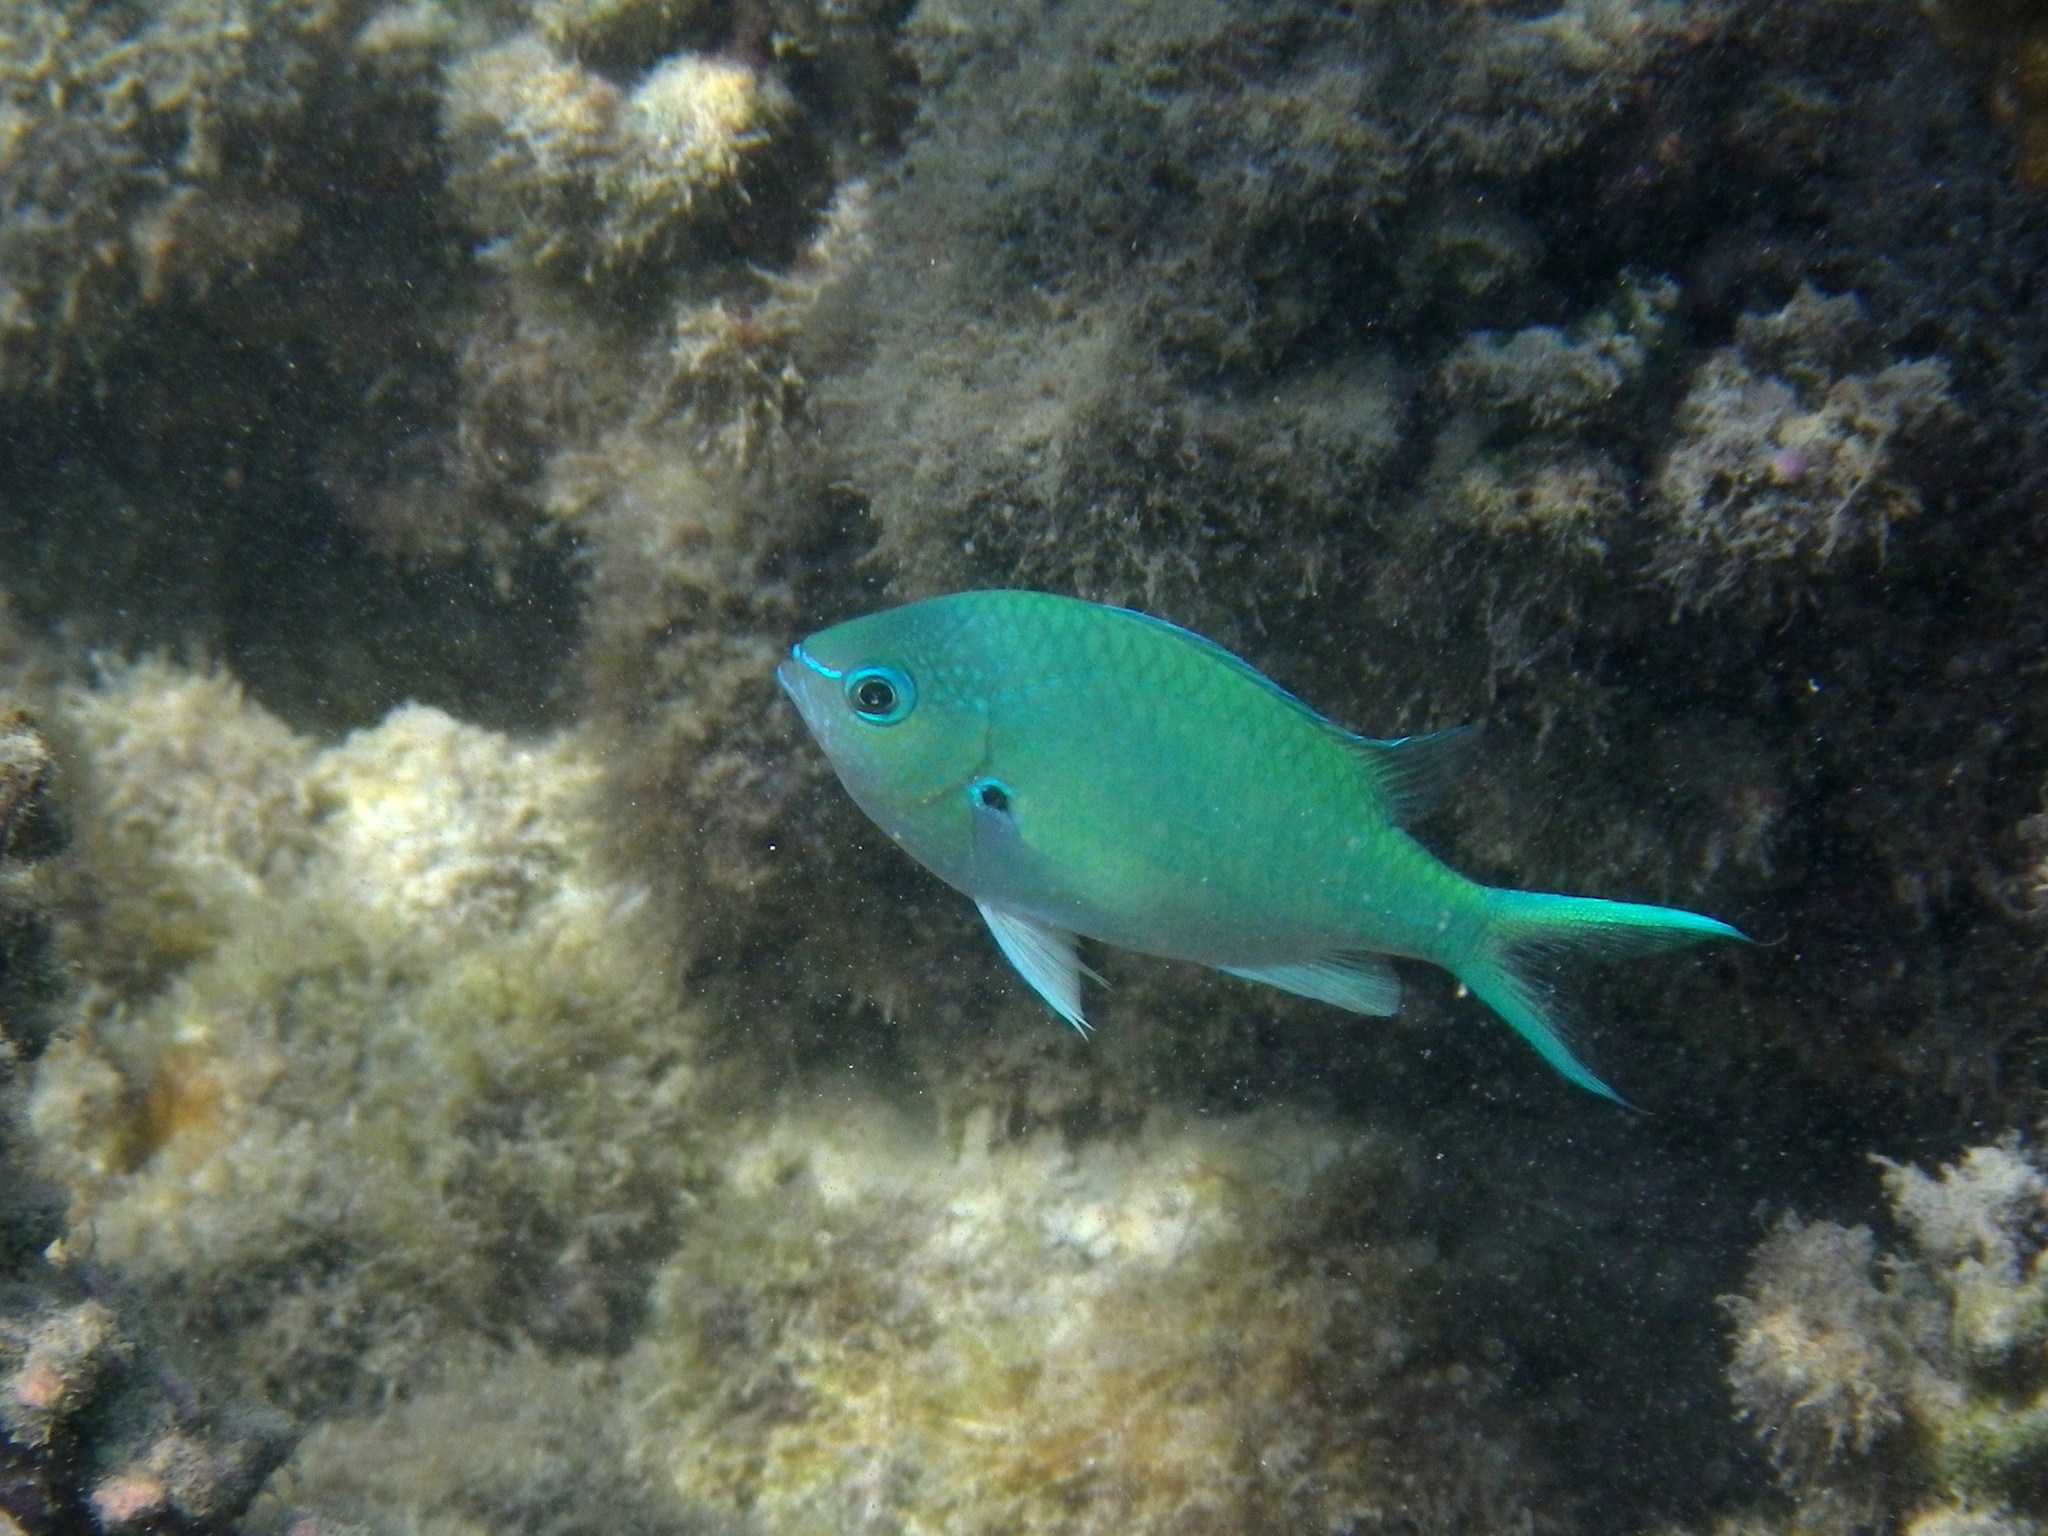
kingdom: Animalia
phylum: Chordata
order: Perciformes
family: Pomacentridae
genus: Chromis
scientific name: Chromis atripectoralis
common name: Black-axil chromis
